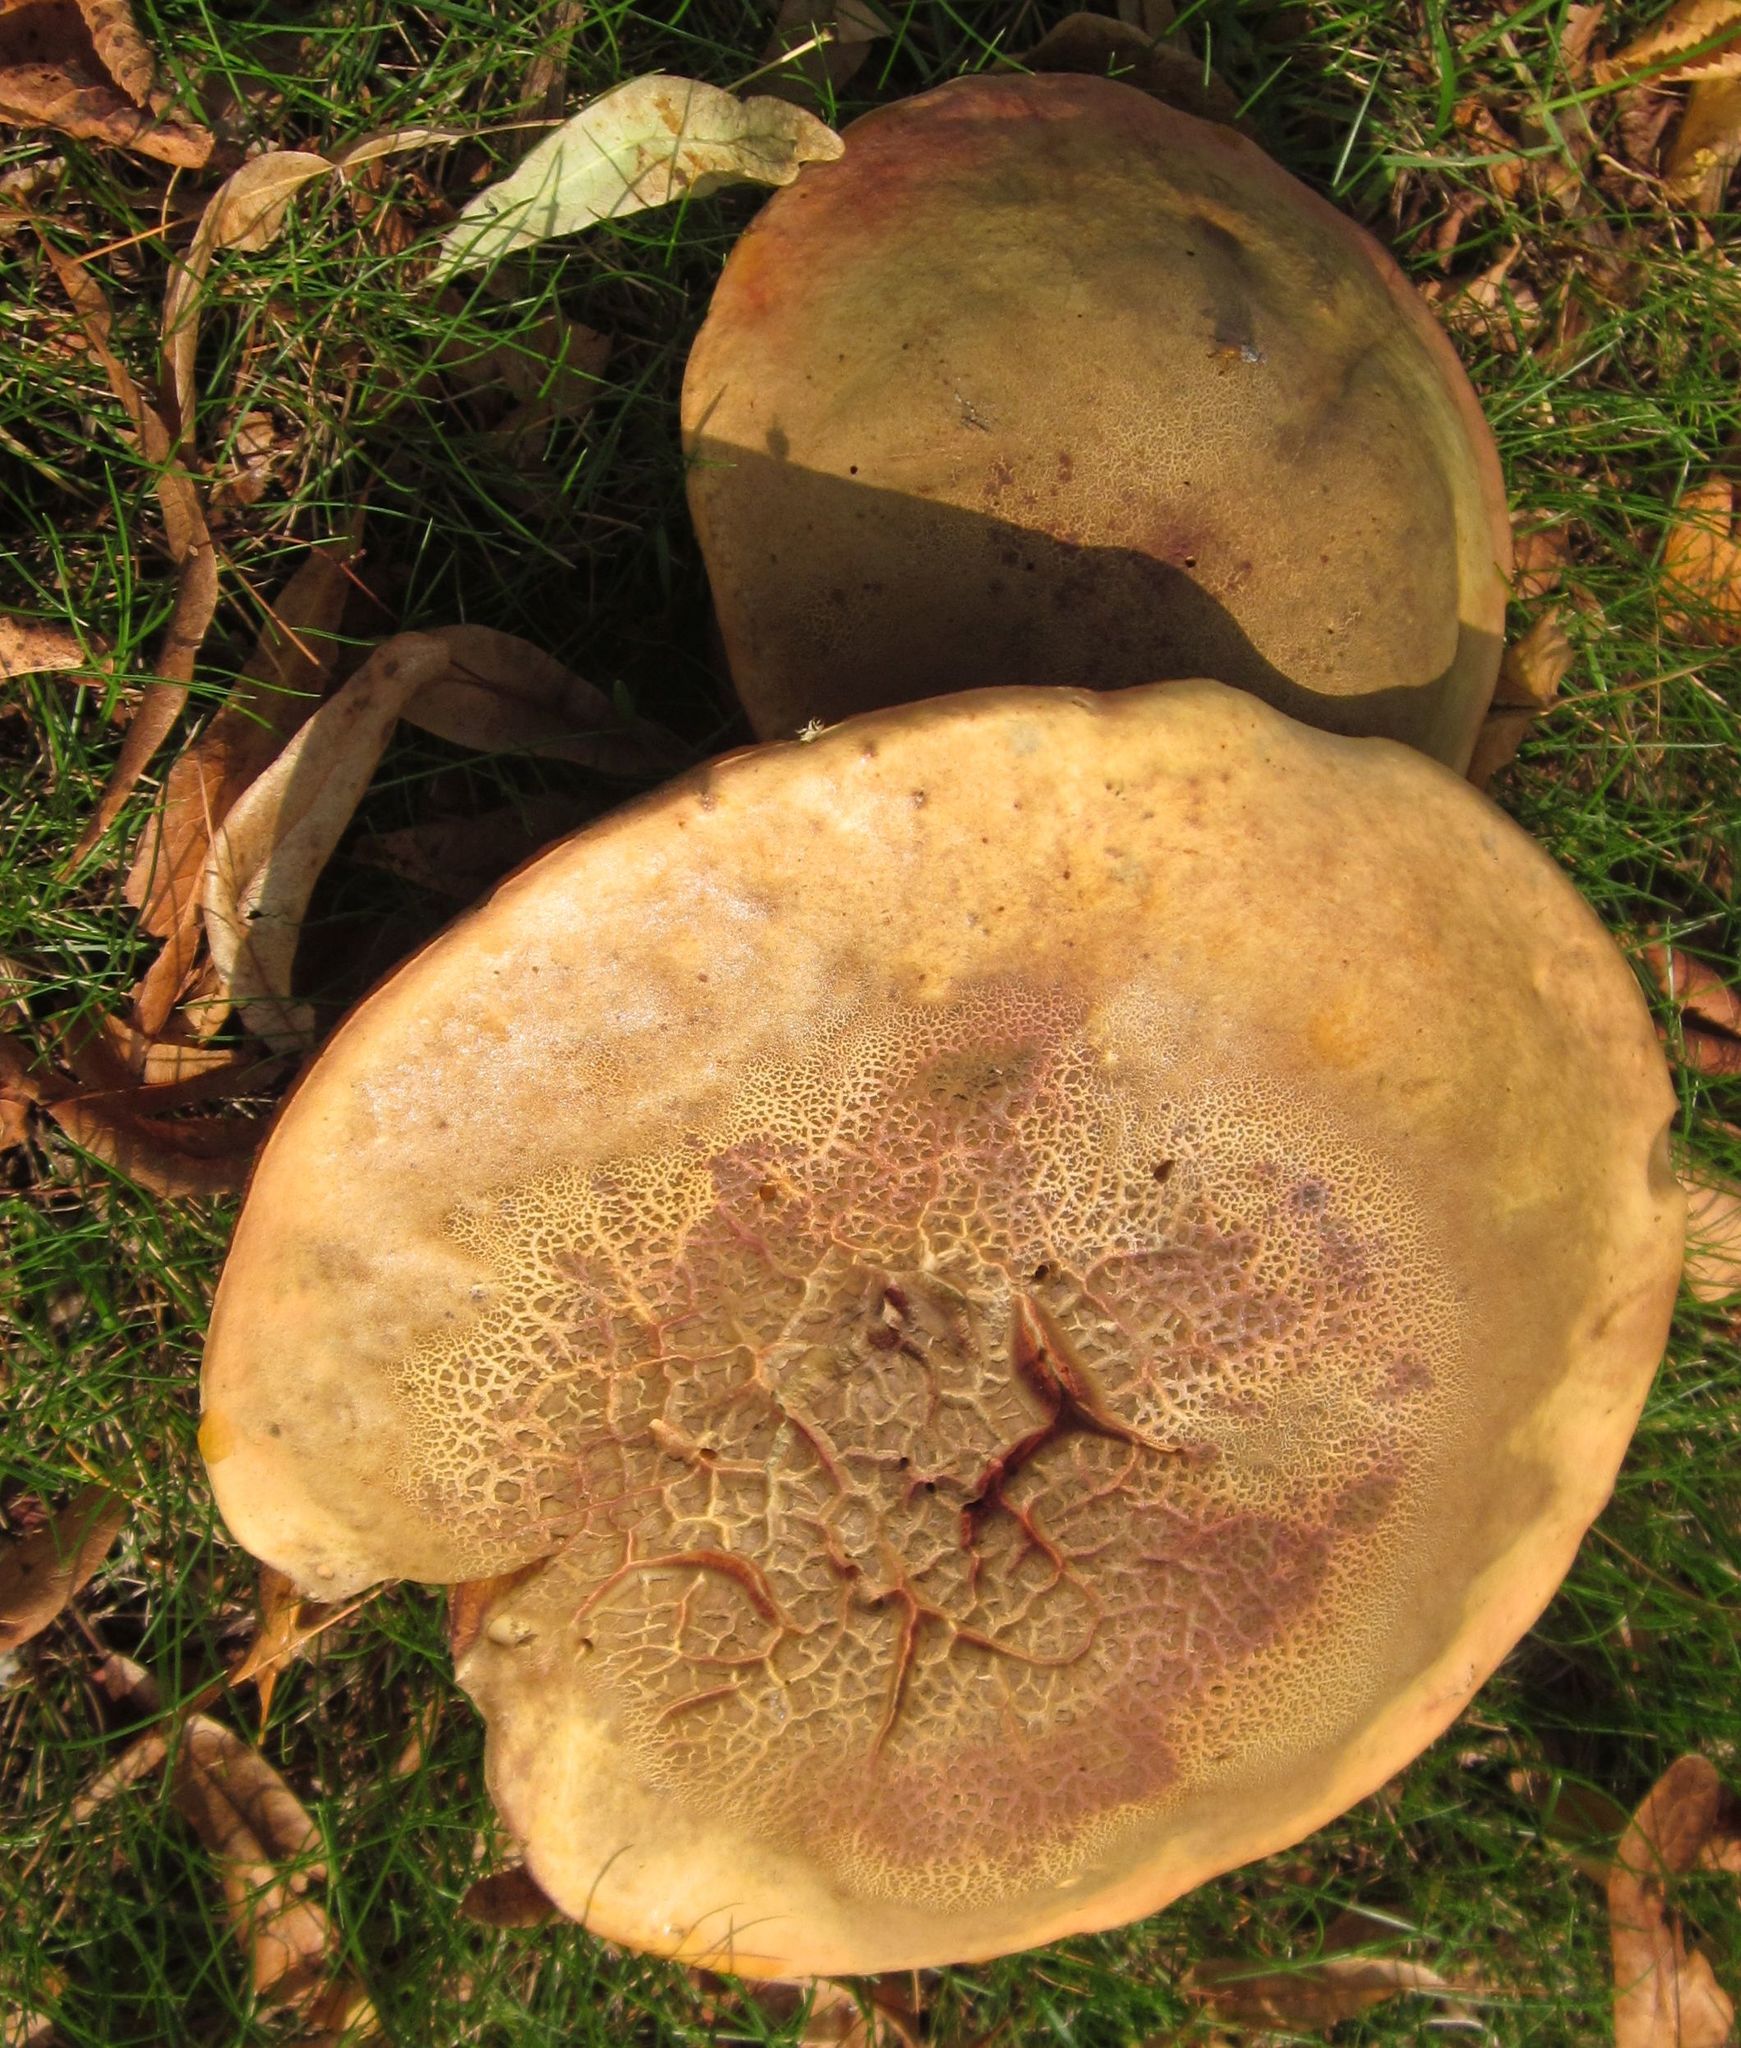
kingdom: Fungi
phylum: Basidiomycota
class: Agaricomycetes
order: Boletales
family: Boletaceae
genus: Suillellus
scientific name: Suillellus luridus
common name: Lurid bolete
